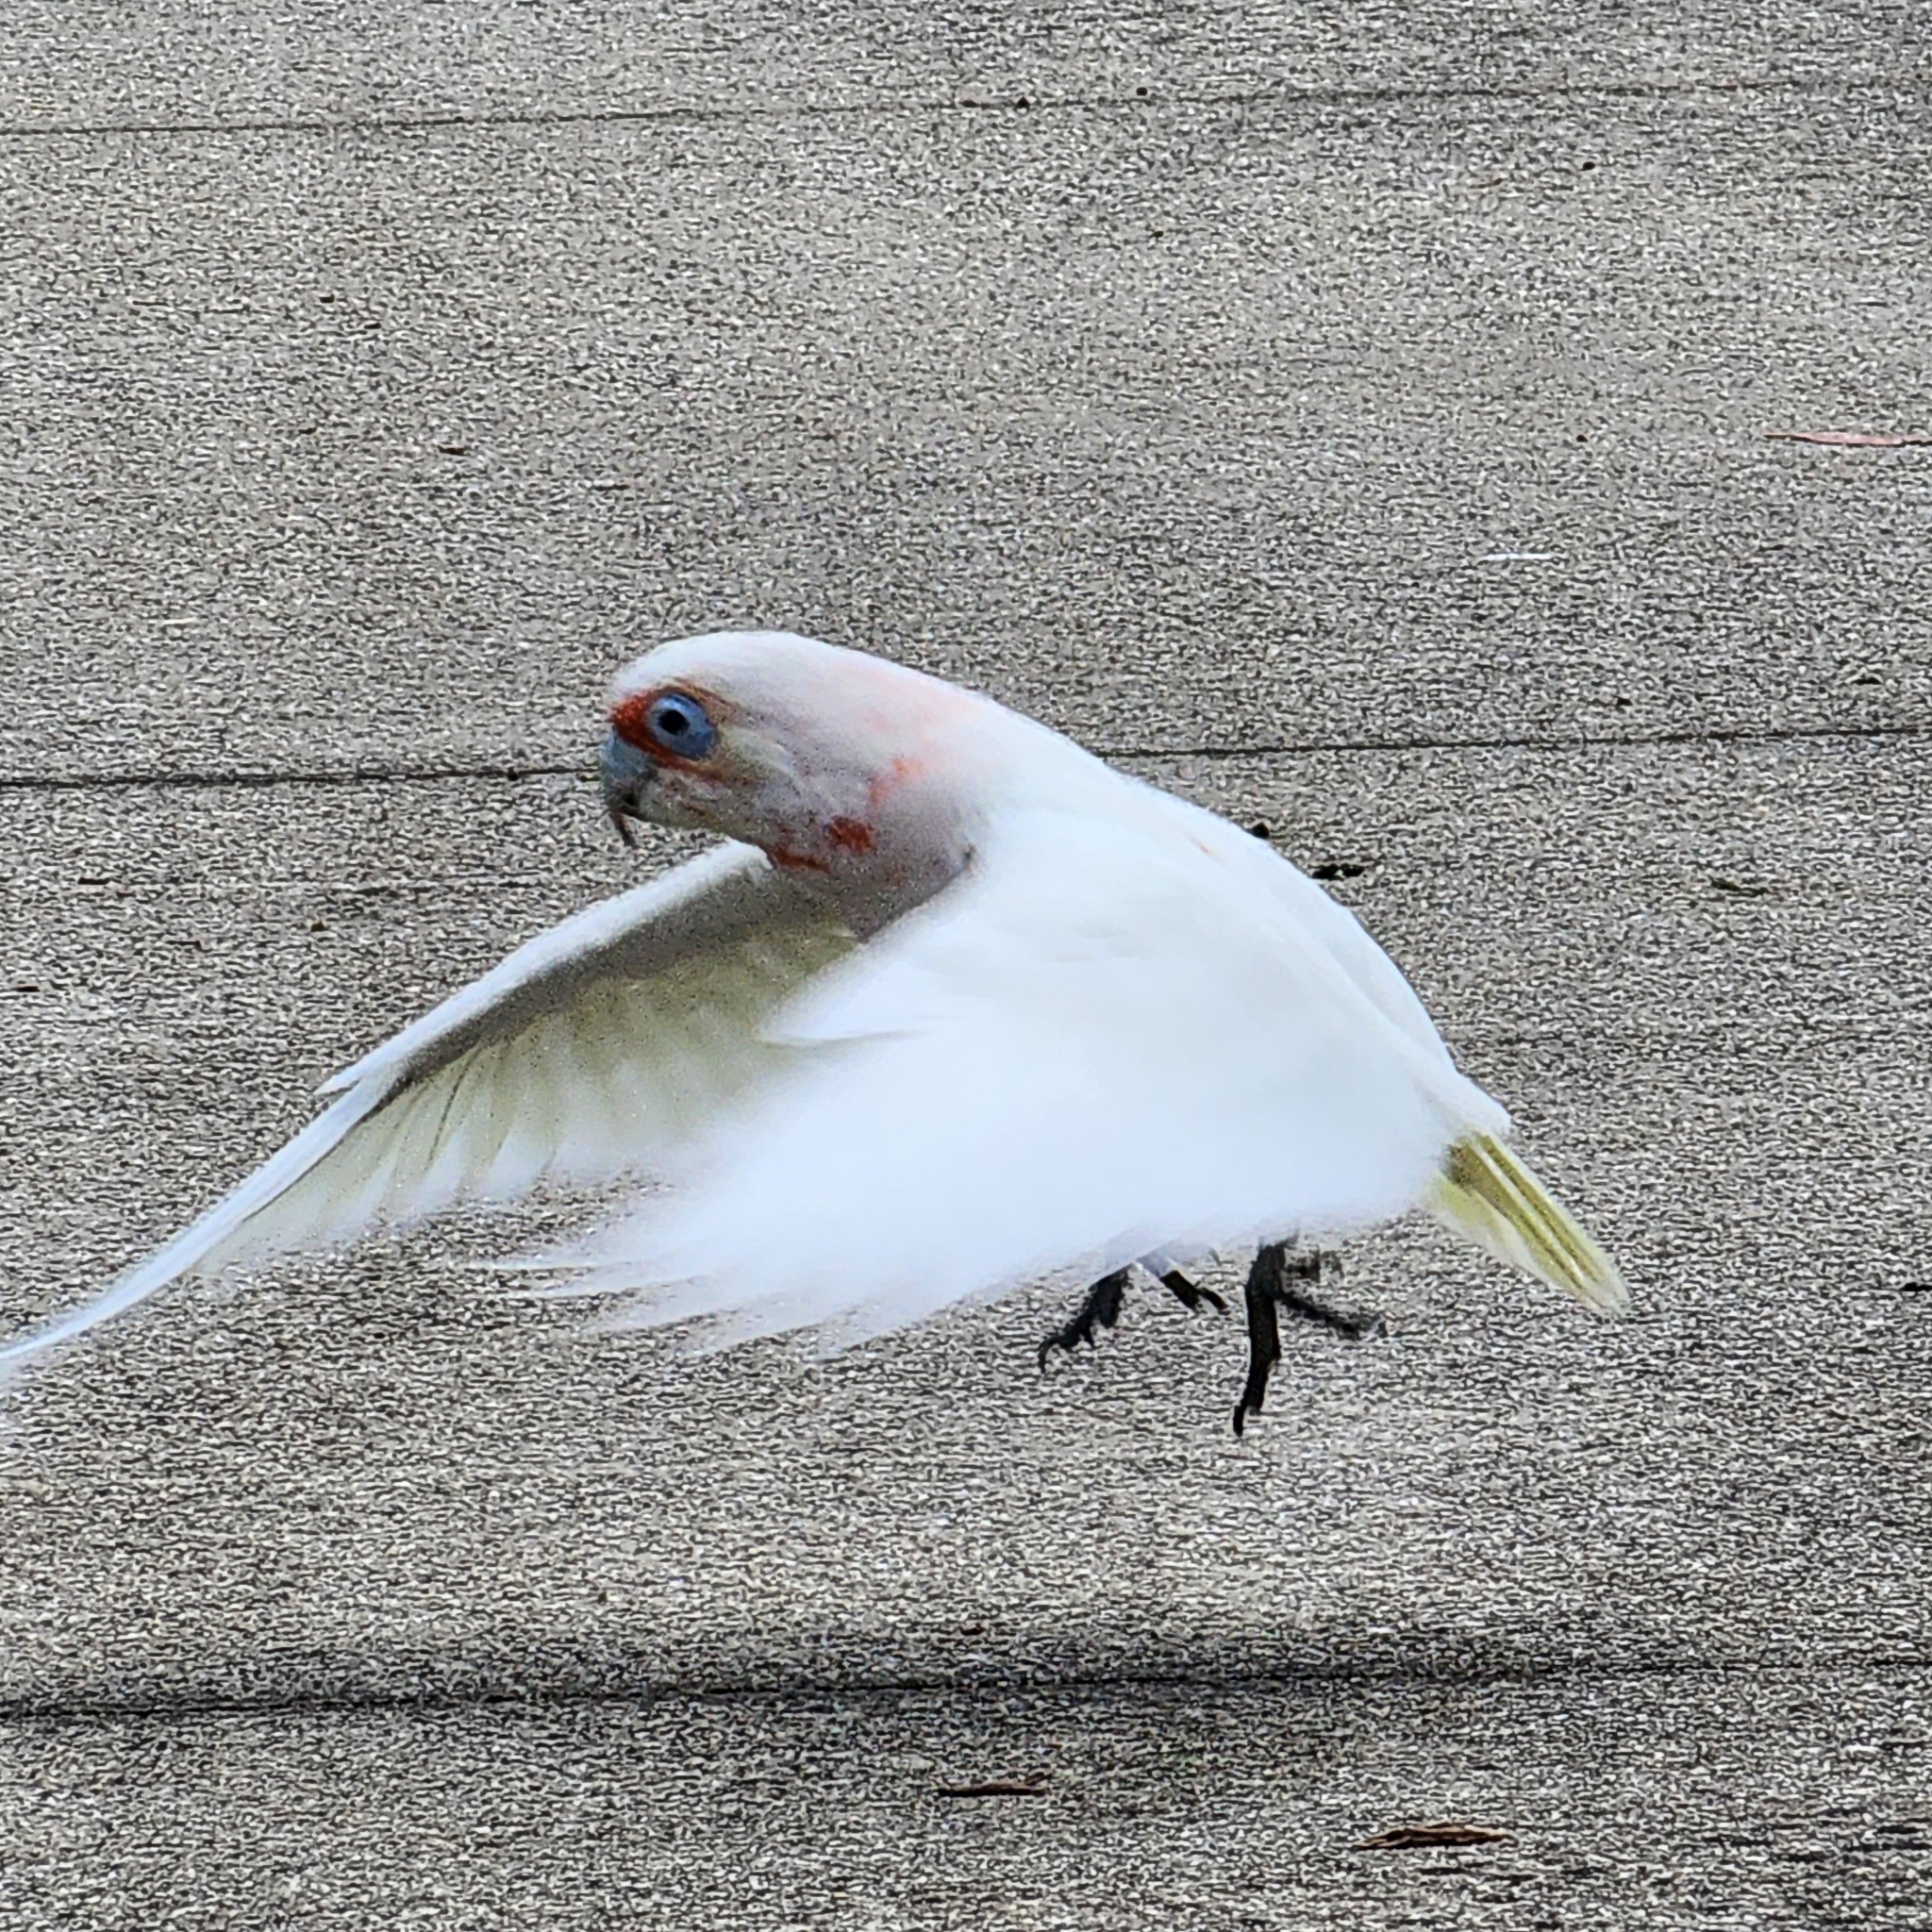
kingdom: Animalia
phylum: Chordata
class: Aves
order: Psittaciformes
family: Psittacidae
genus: Cacatua
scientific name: Cacatua tenuirostris
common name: Long-billed corella
